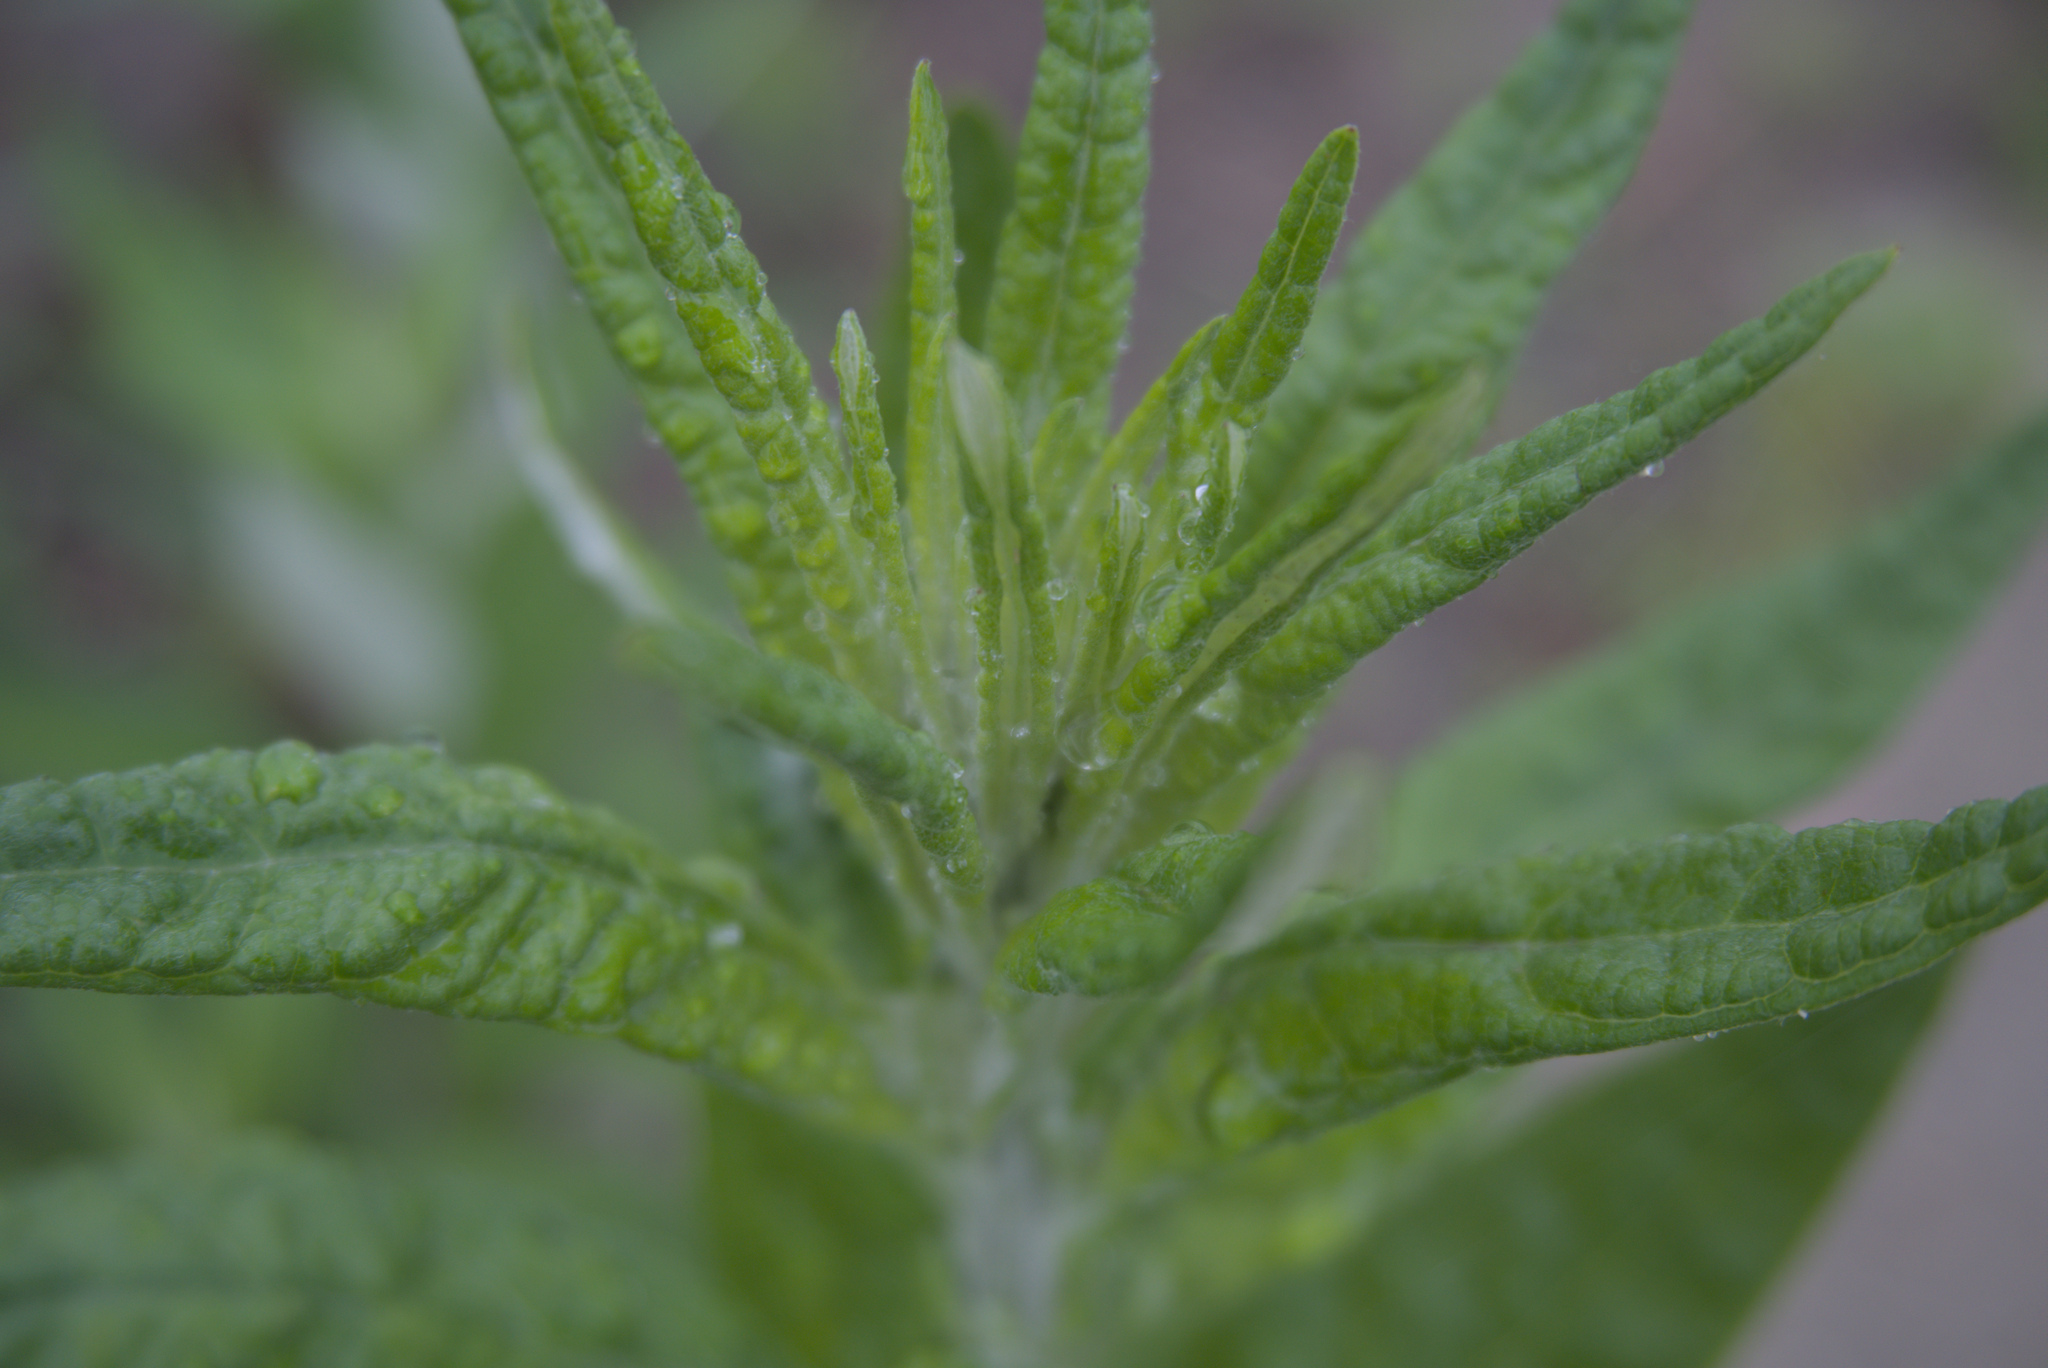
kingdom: Plantae
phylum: Tracheophyta
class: Magnoliopsida
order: Asterales
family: Asteraceae
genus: Artemisia
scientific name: Artemisia douglasiana
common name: Northwest mugwort
